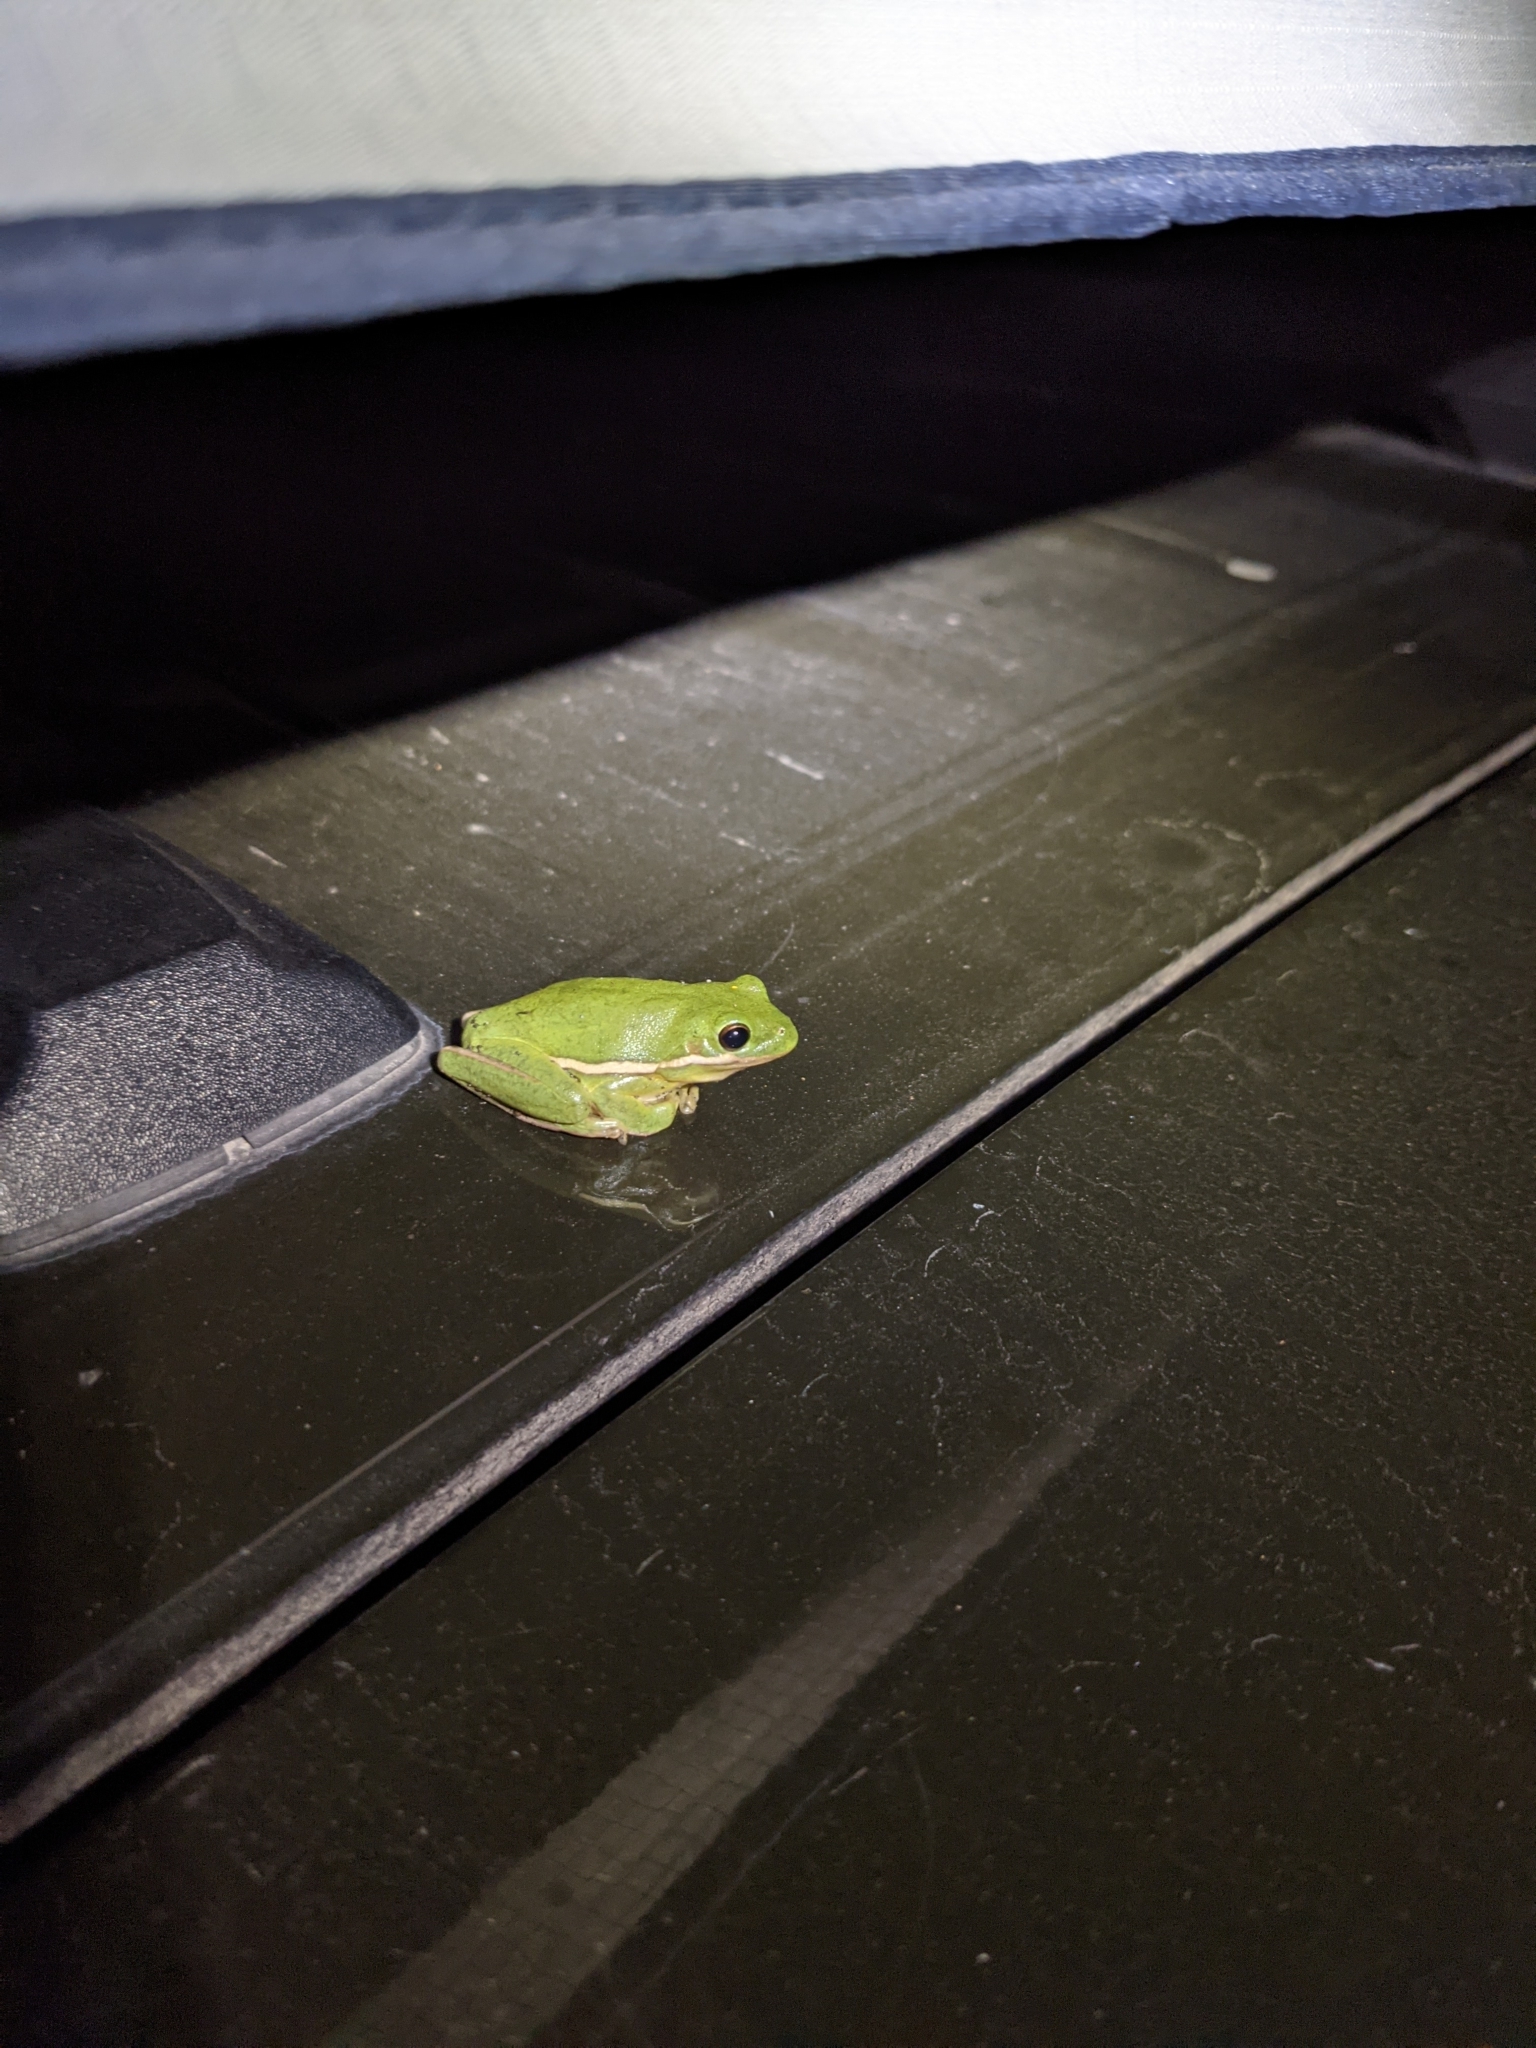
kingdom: Animalia
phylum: Chordata
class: Amphibia
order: Anura
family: Hylidae
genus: Dryophytes
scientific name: Dryophytes cinereus
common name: Green treefrog
